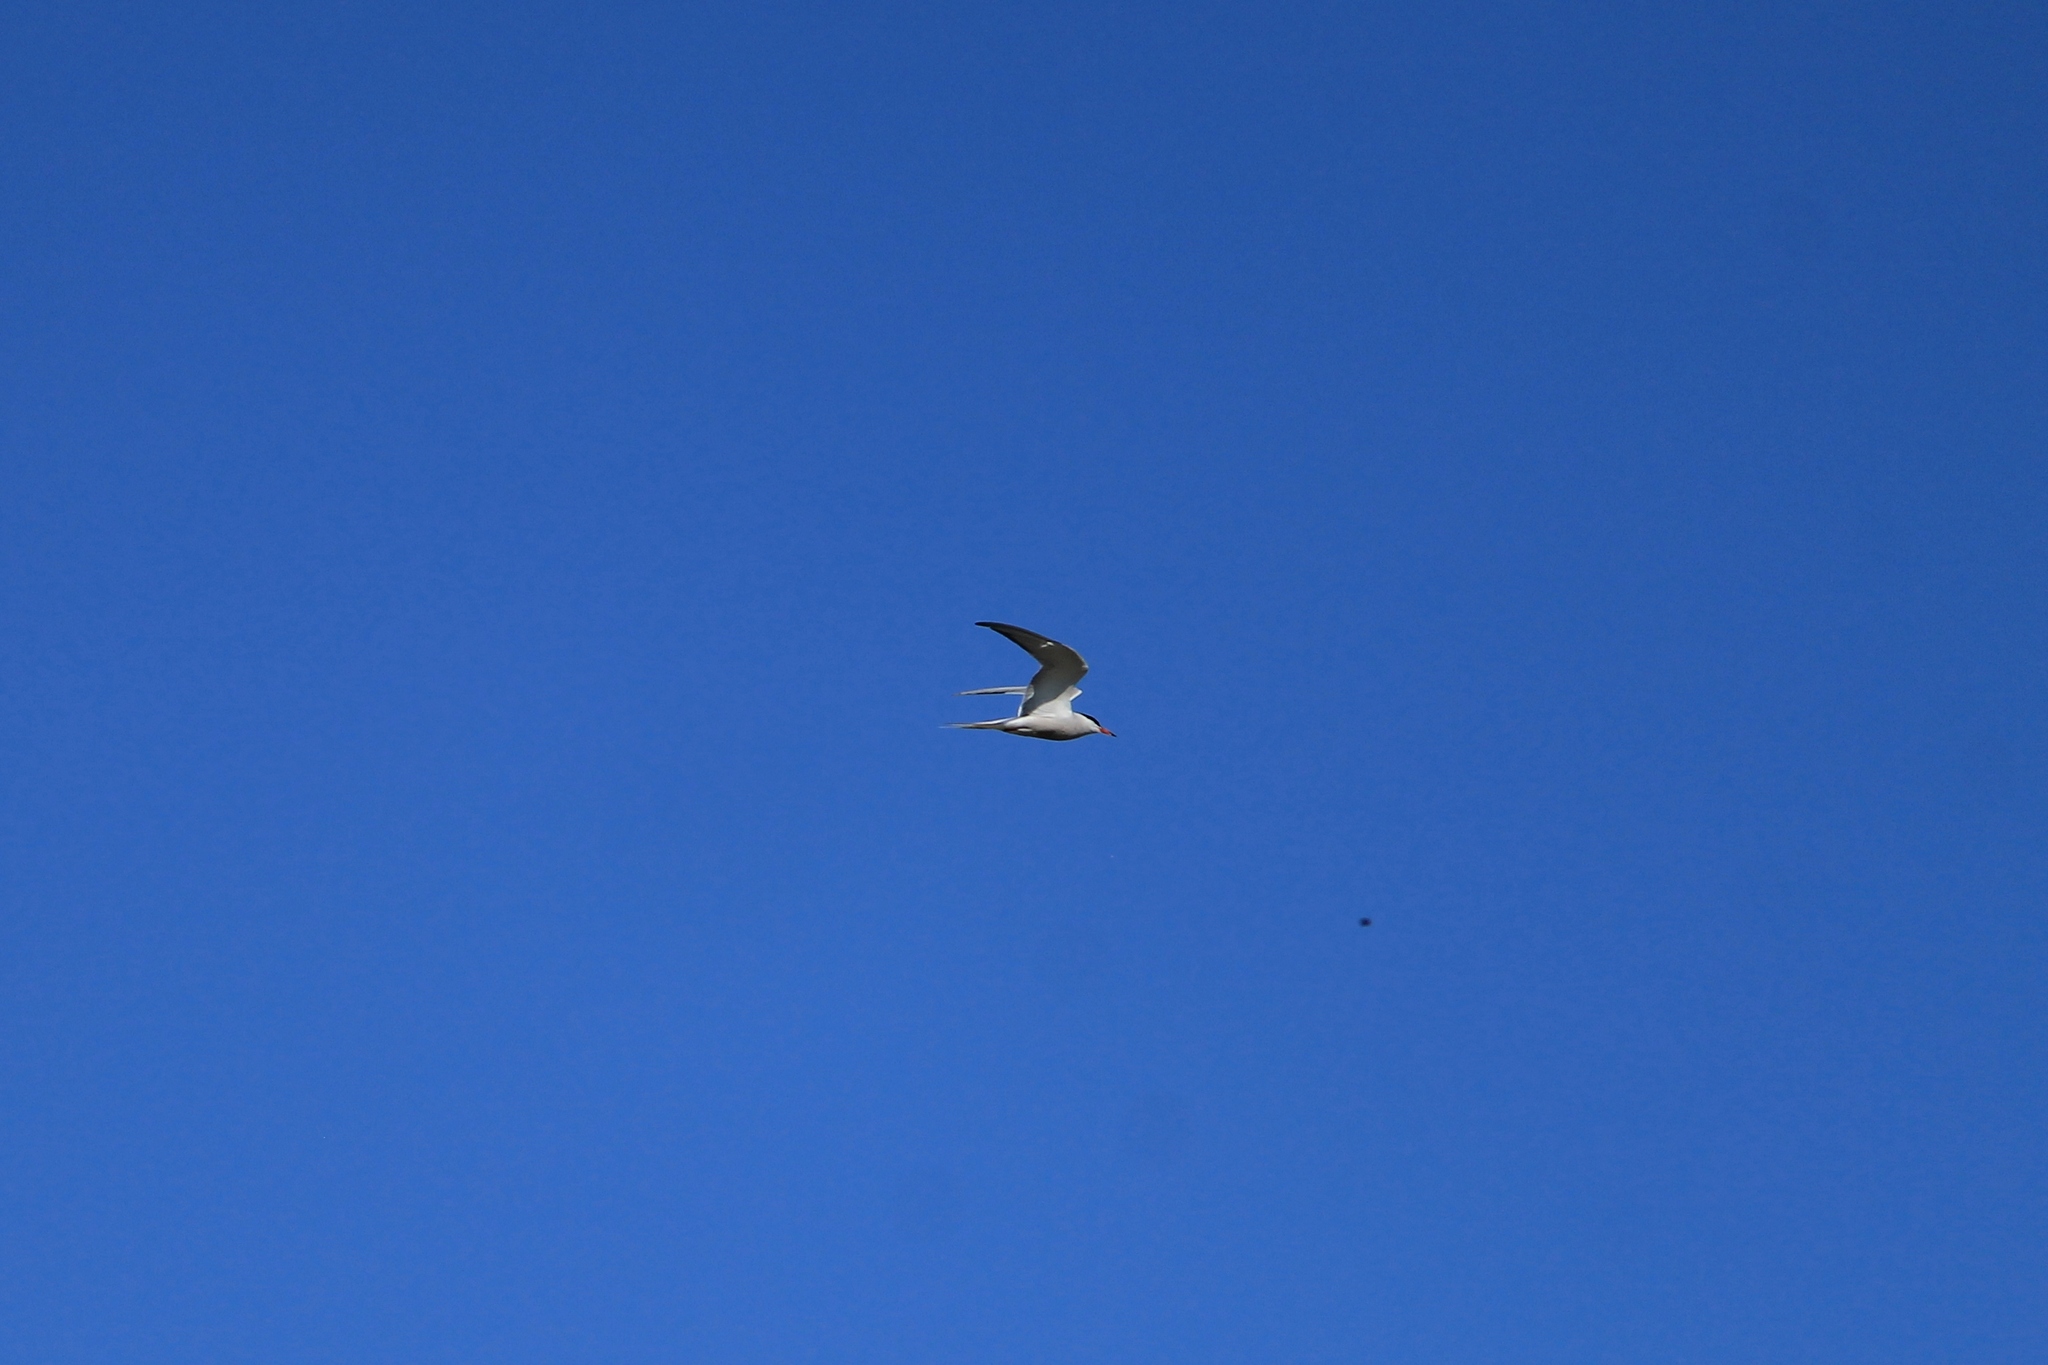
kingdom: Animalia
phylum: Chordata
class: Aves
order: Charadriiformes
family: Laridae
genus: Sterna
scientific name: Sterna hirundo
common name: Common tern
